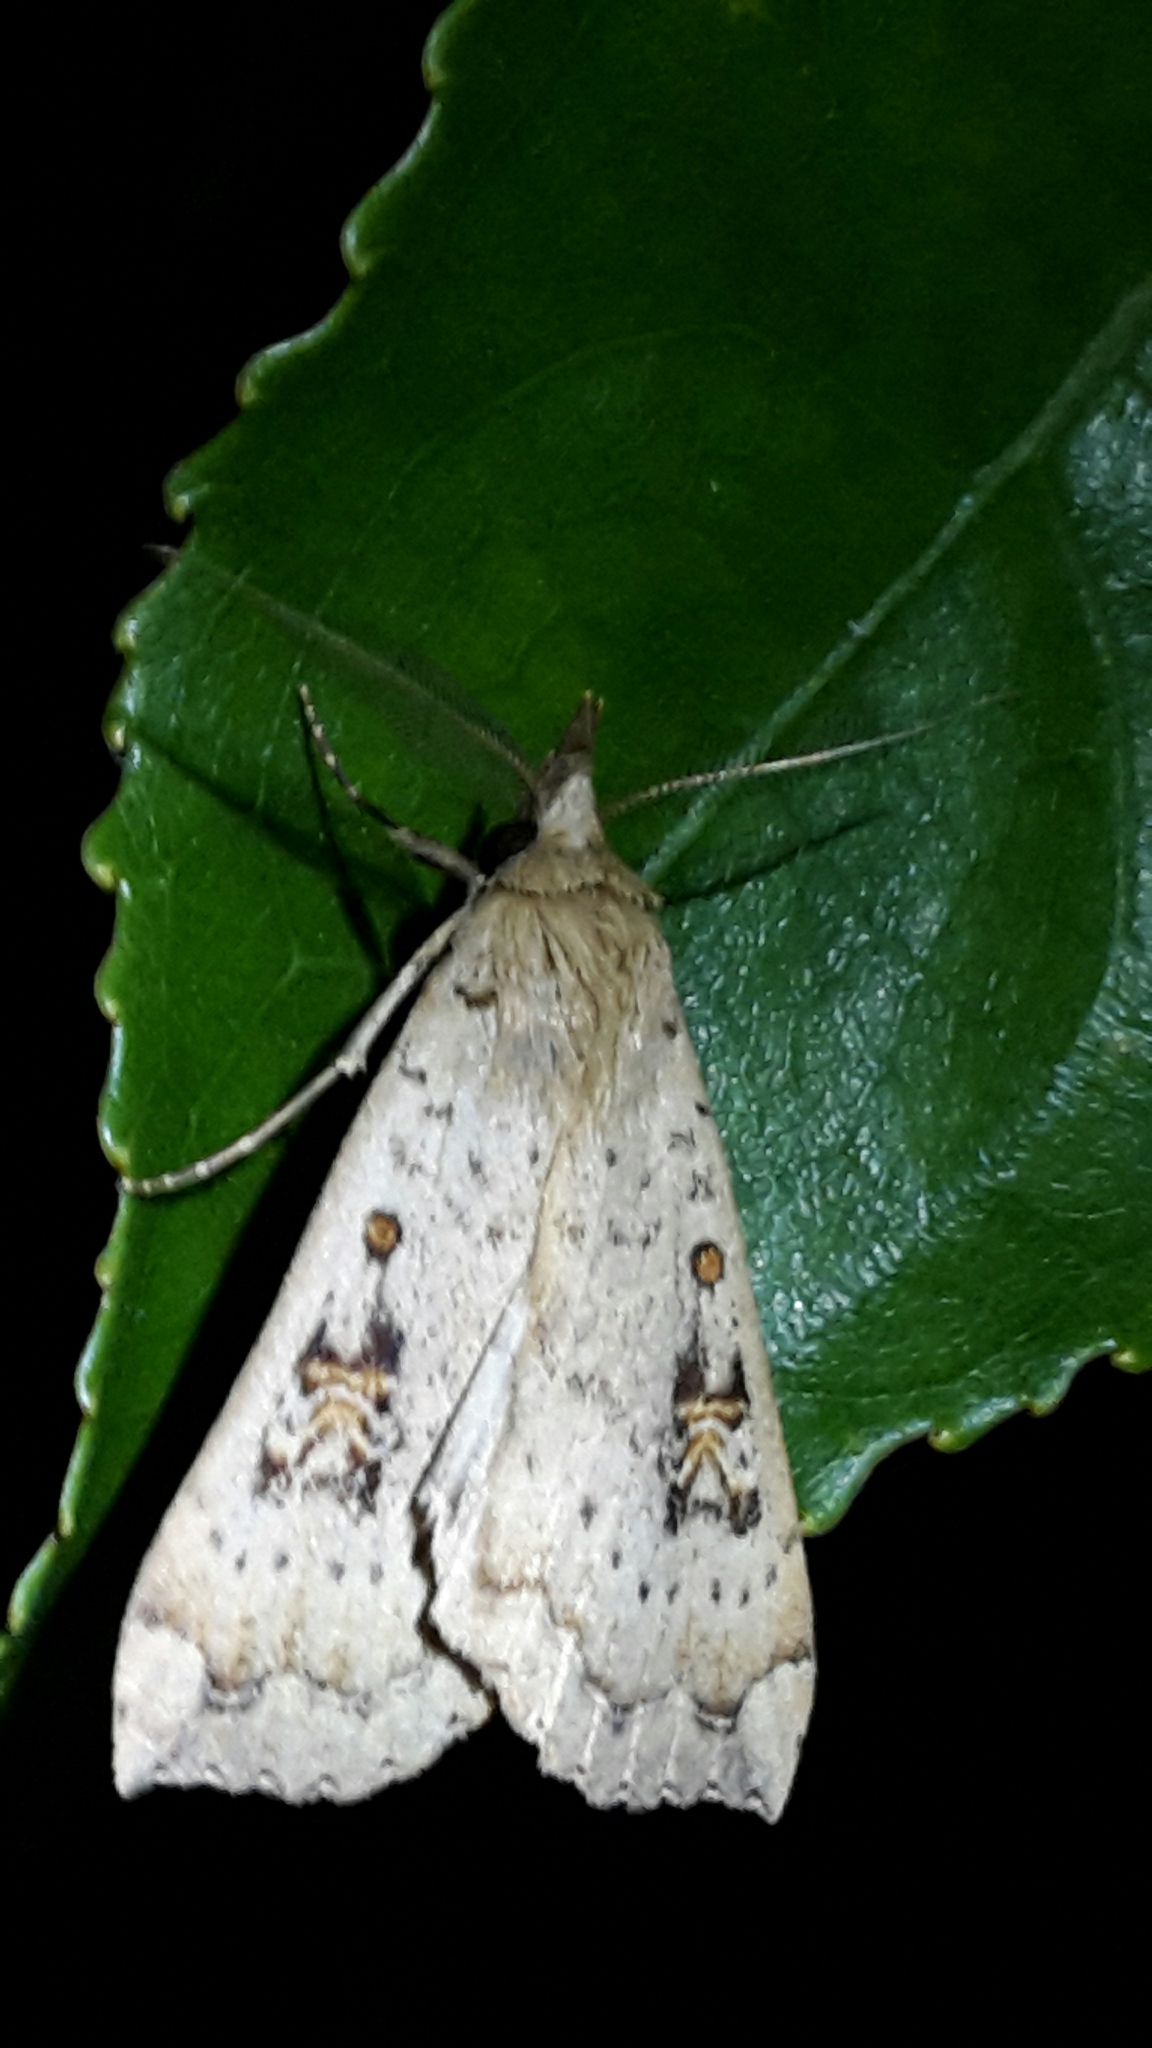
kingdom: Animalia
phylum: Arthropoda
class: Insecta
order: Lepidoptera
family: Erebidae
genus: Rhapsa
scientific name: Rhapsa scotosialis
